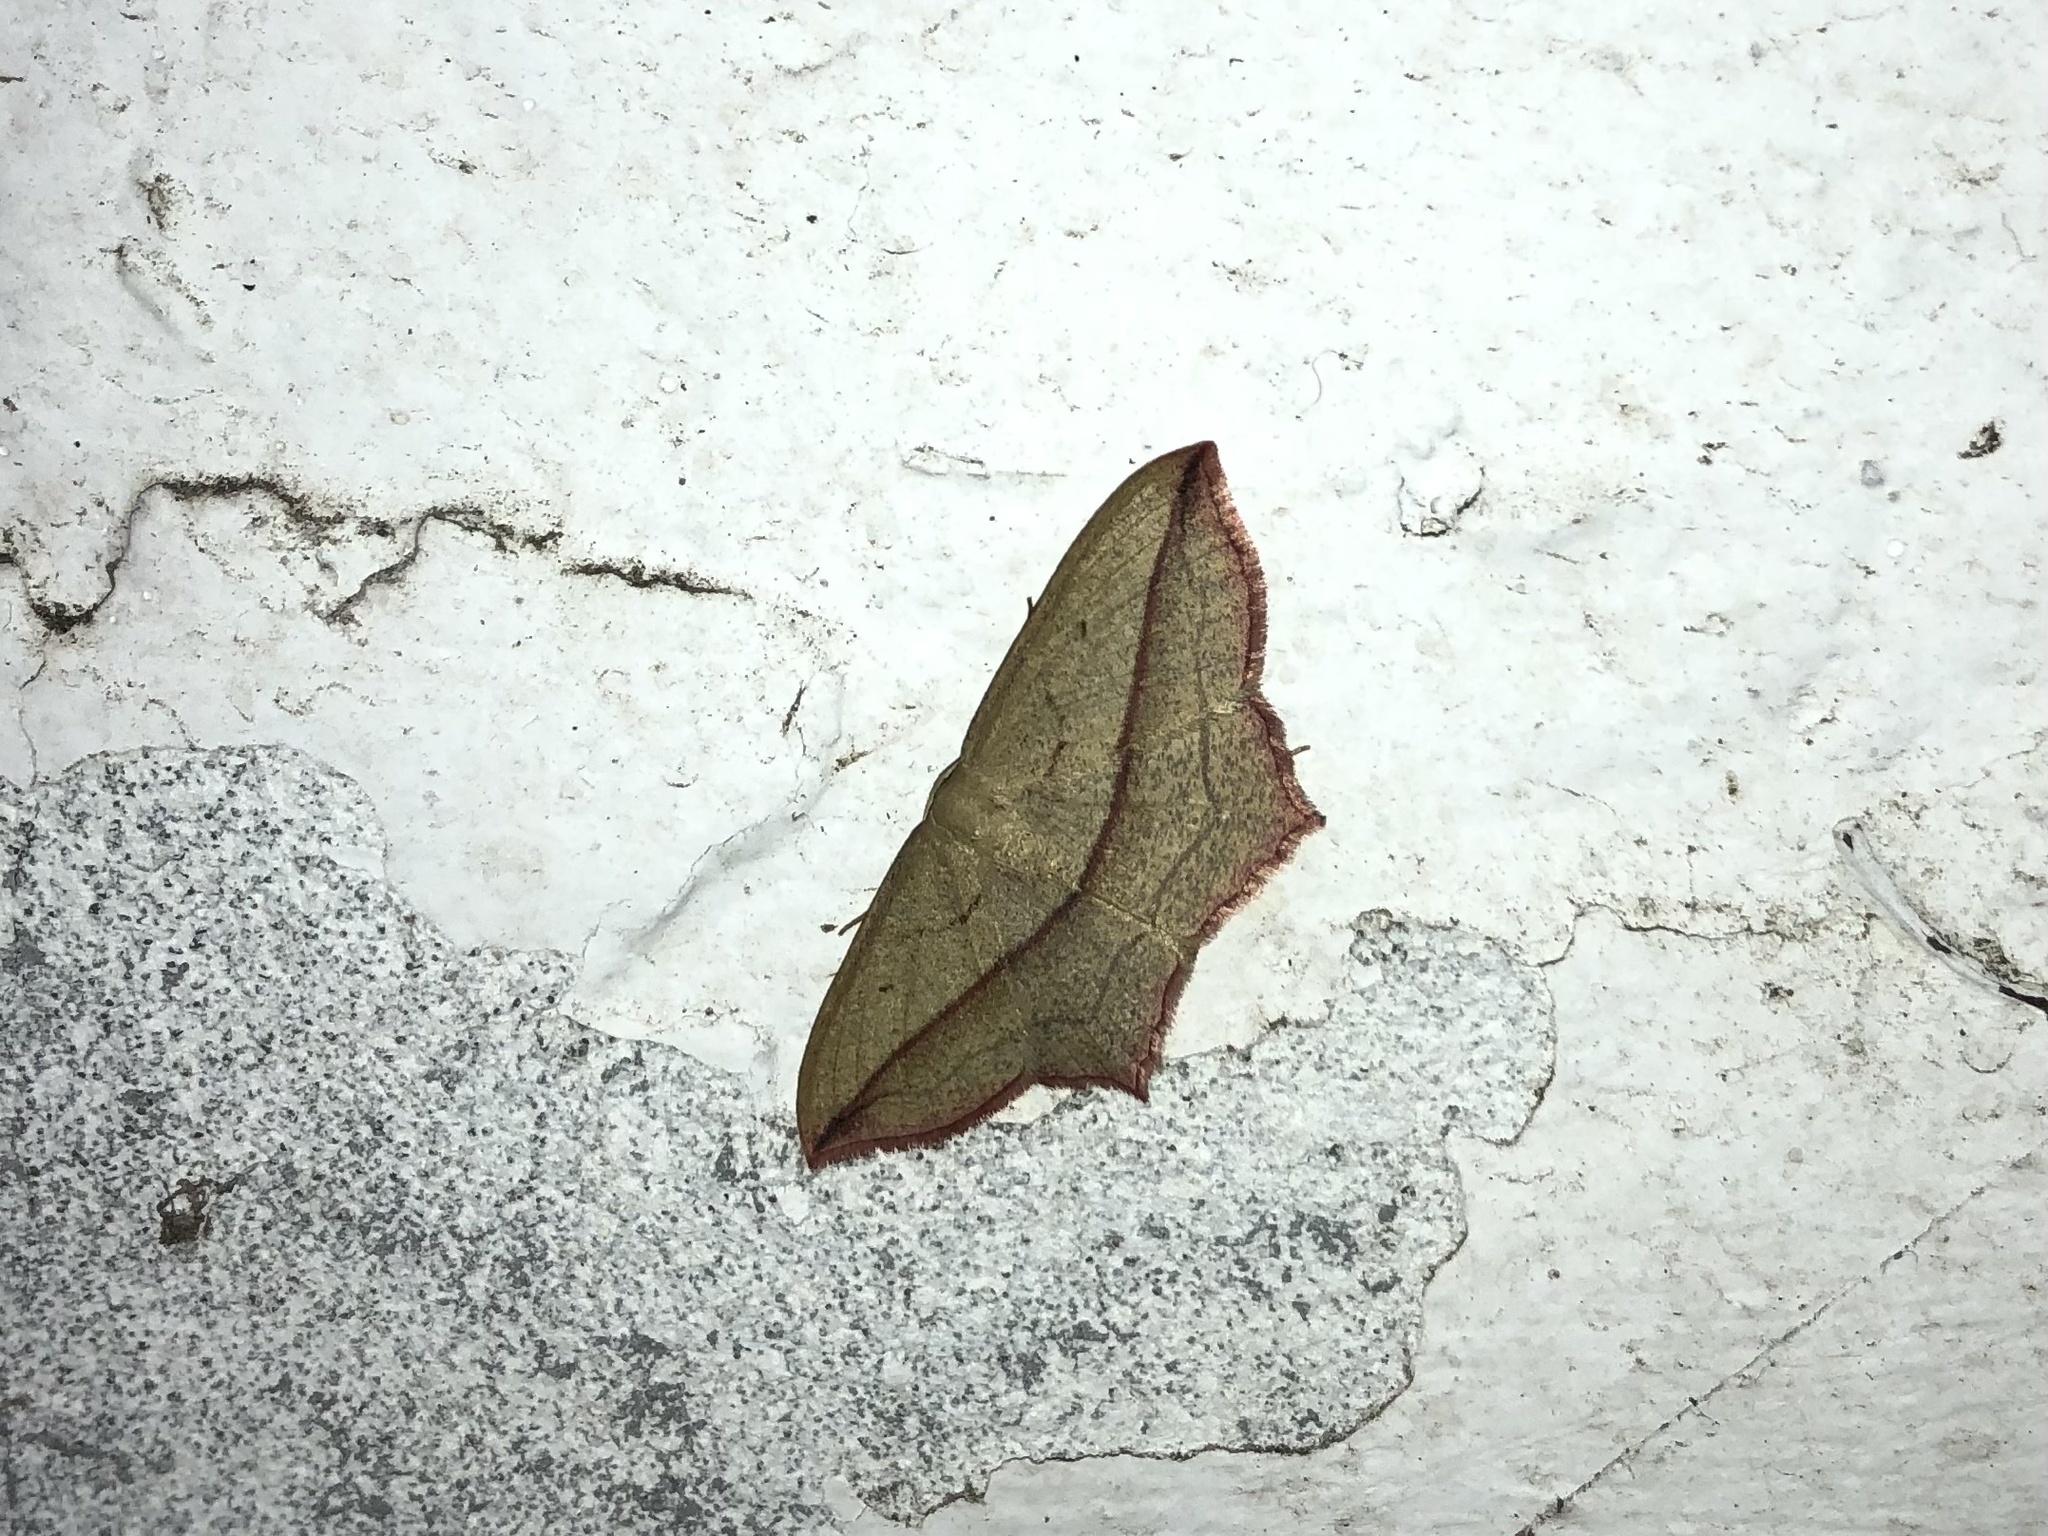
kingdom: Animalia
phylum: Arthropoda
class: Insecta
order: Lepidoptera
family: Geometridae
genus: Timandra
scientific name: Timandra comae
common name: Blood-vein
